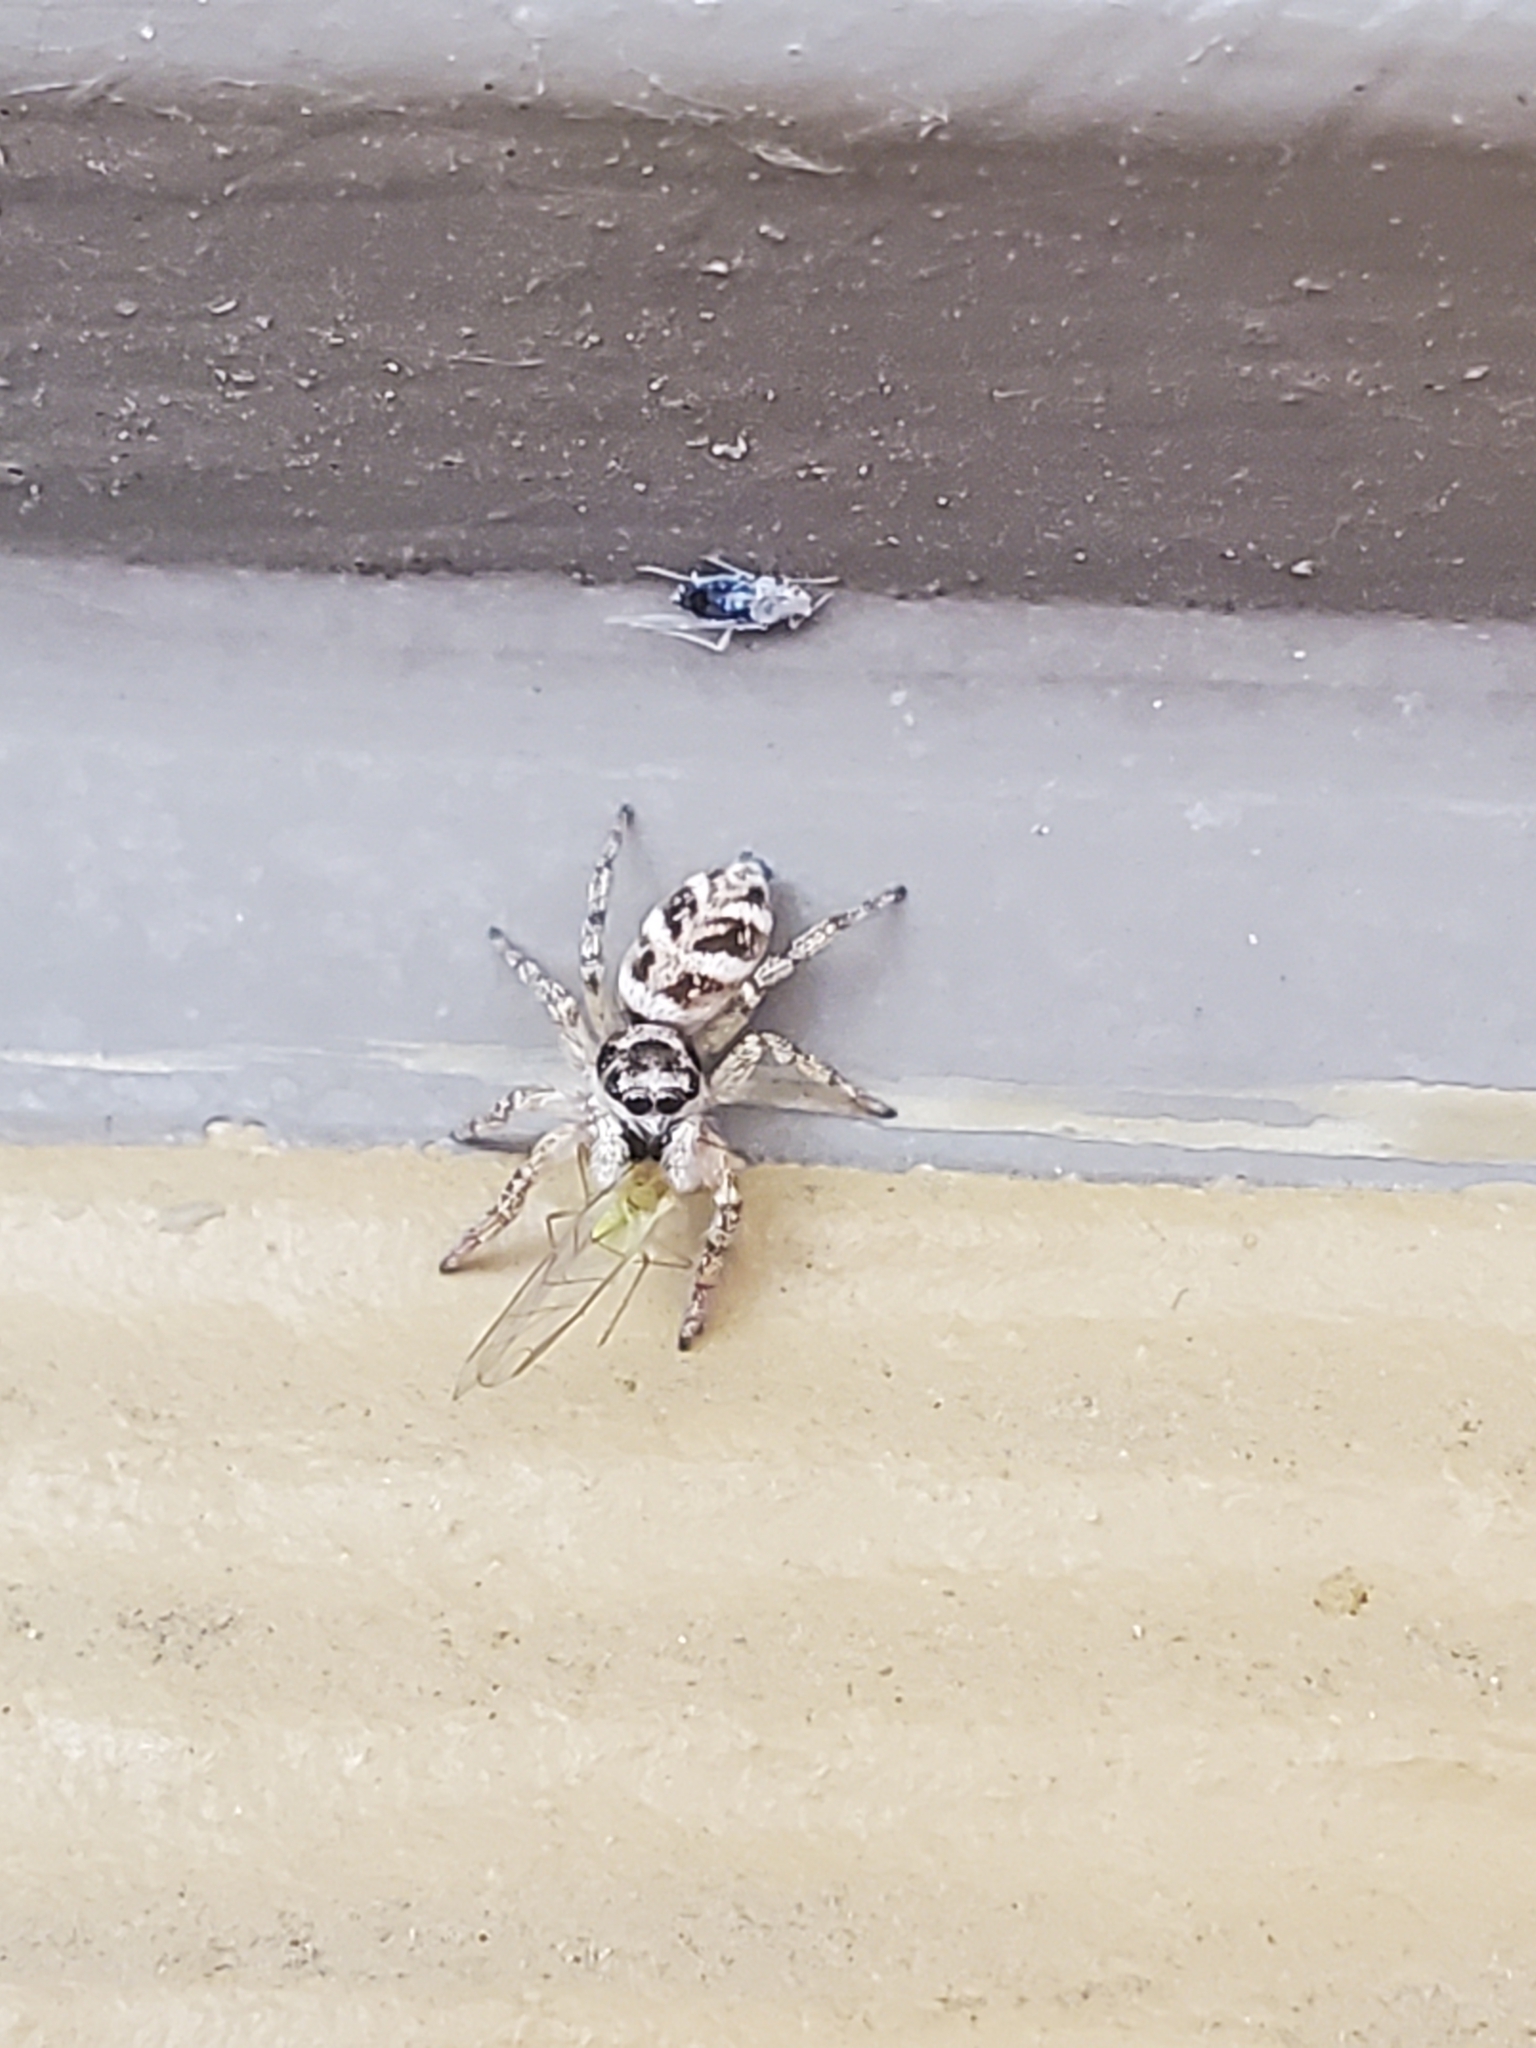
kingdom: Animalia
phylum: Arthropoda
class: Arachnida
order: Araneae
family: Salticidae
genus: Salticus
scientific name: Salticus scenicus
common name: Zebra jumper
